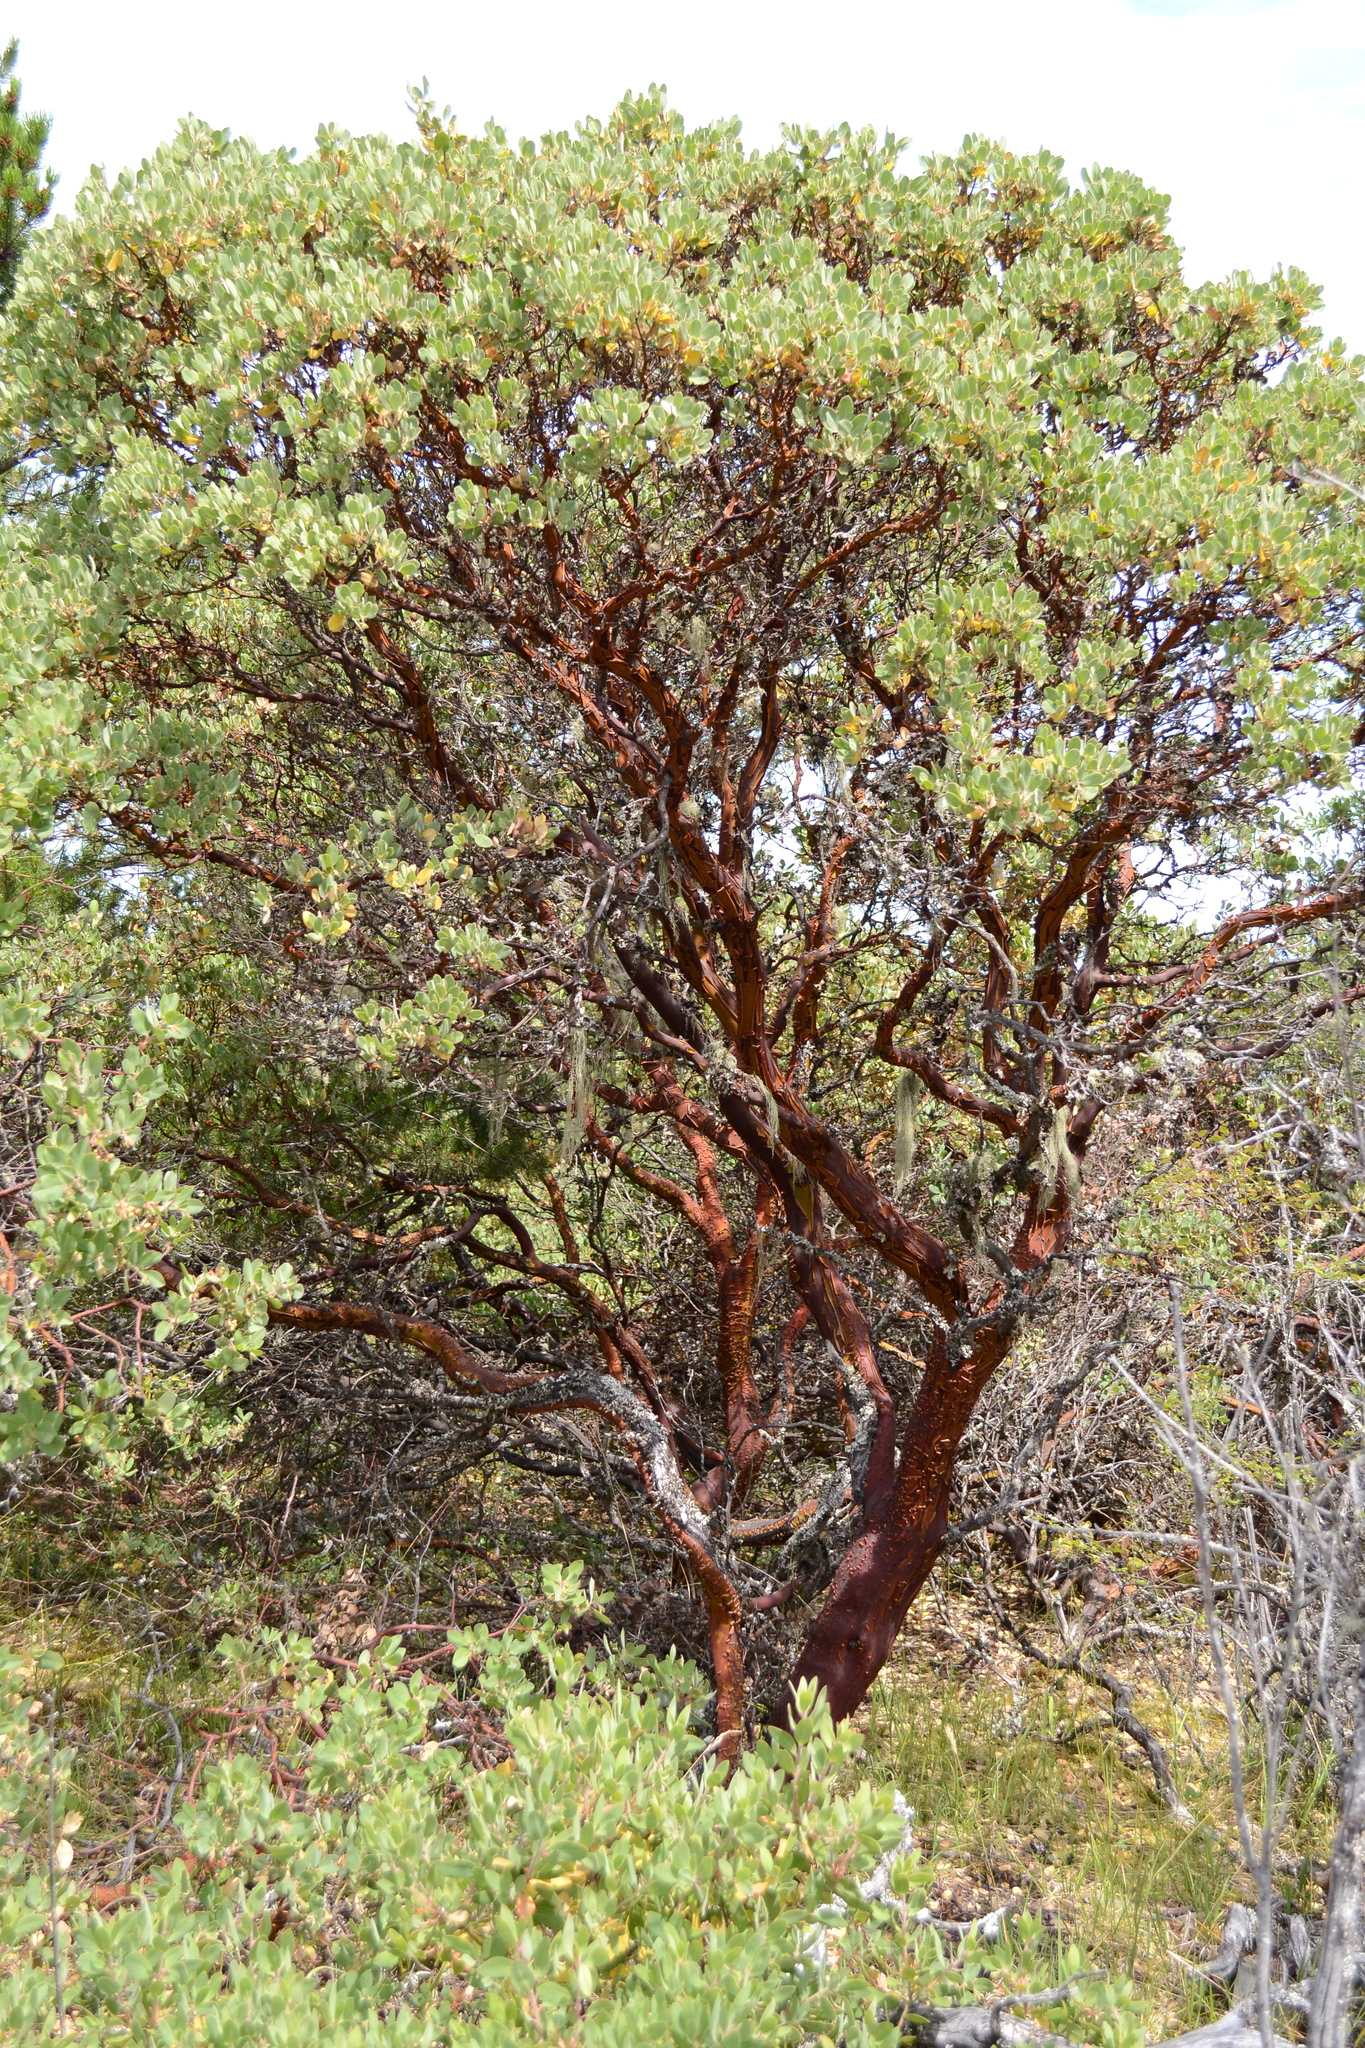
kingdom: Plantae
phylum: Tracheophyta
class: Magnoliopsida
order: Ericales
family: Ericaceae
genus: Arctostaphylos
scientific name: Arctostaphylos columbiana
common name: Bristly bearberry
